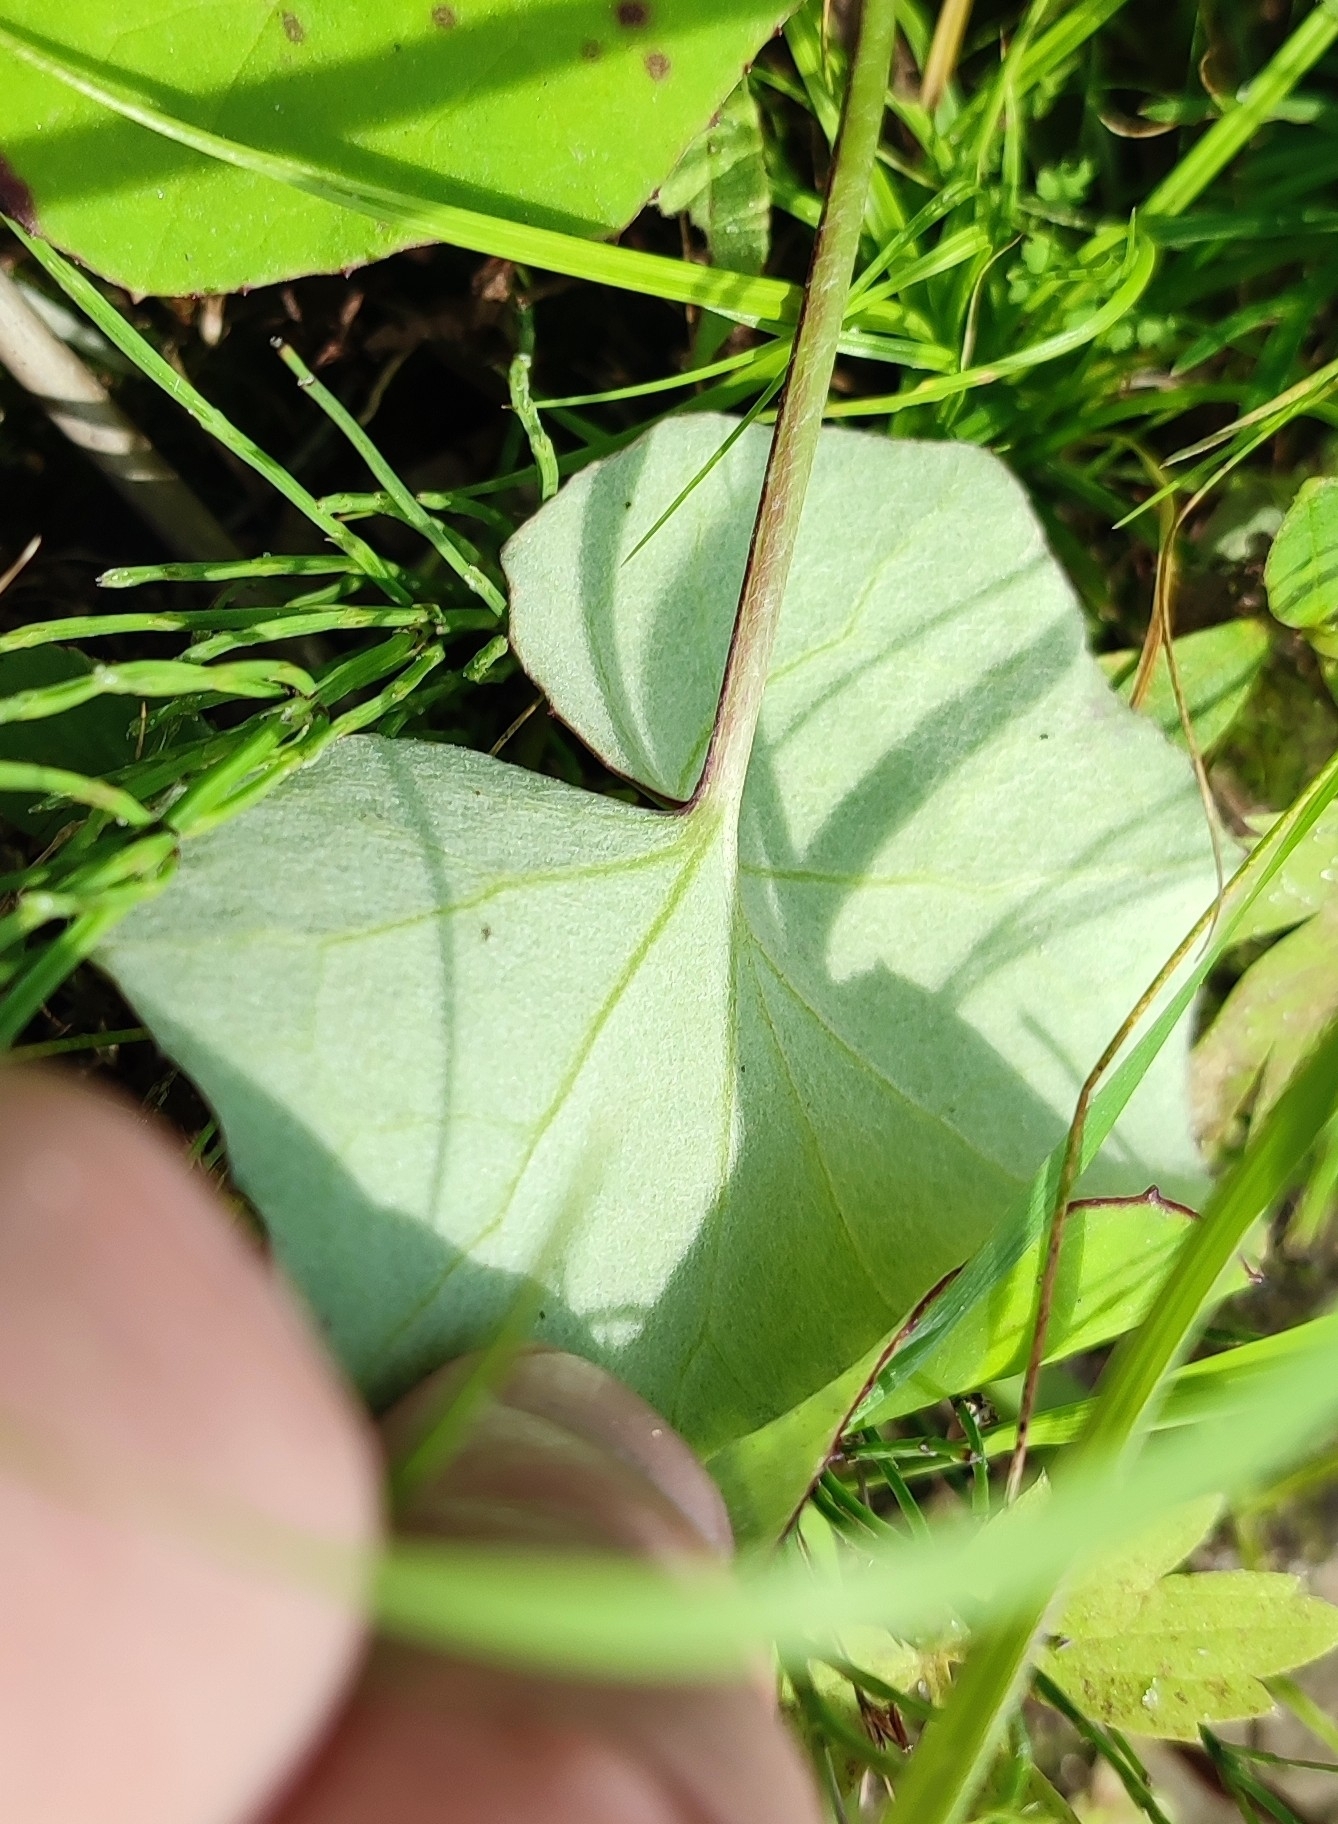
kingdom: Plantae
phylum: Tracheophyta
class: Magnoliopsida
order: Asterales
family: Asteraceae
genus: Tussilago
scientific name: Tussilago farfara
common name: Coltsfoot
